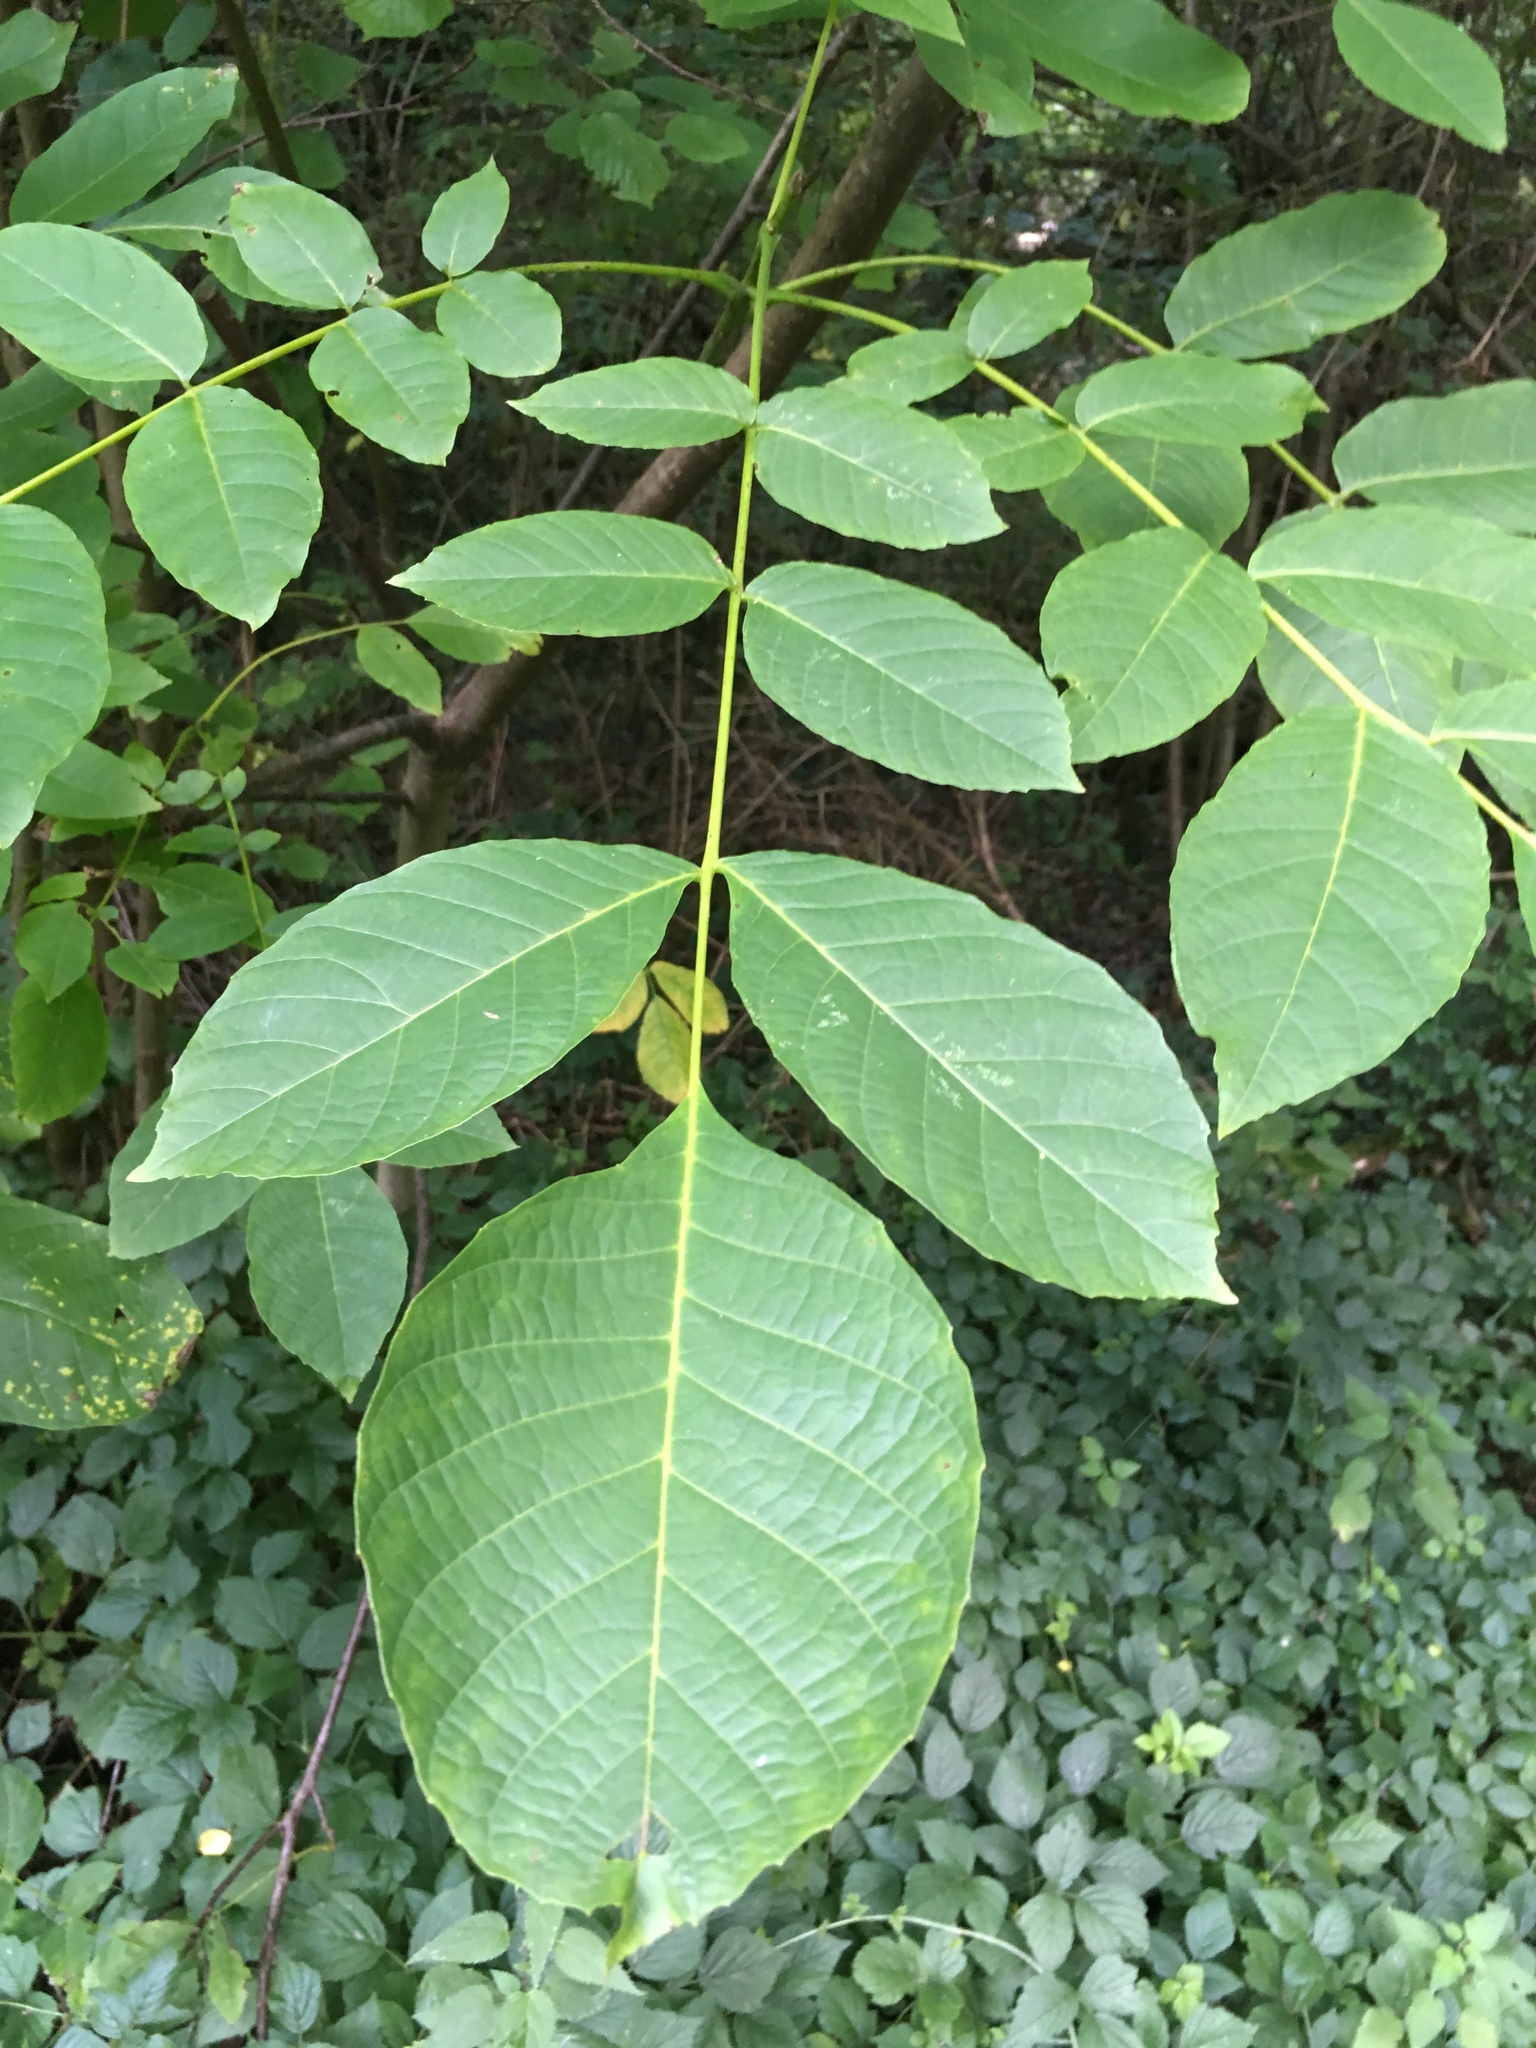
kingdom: Plantae
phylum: Tracheophyta
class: Magnoliopsida
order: Fagales
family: Juglandaceae
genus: Juglans
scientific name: Juglans regia
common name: Walnut
